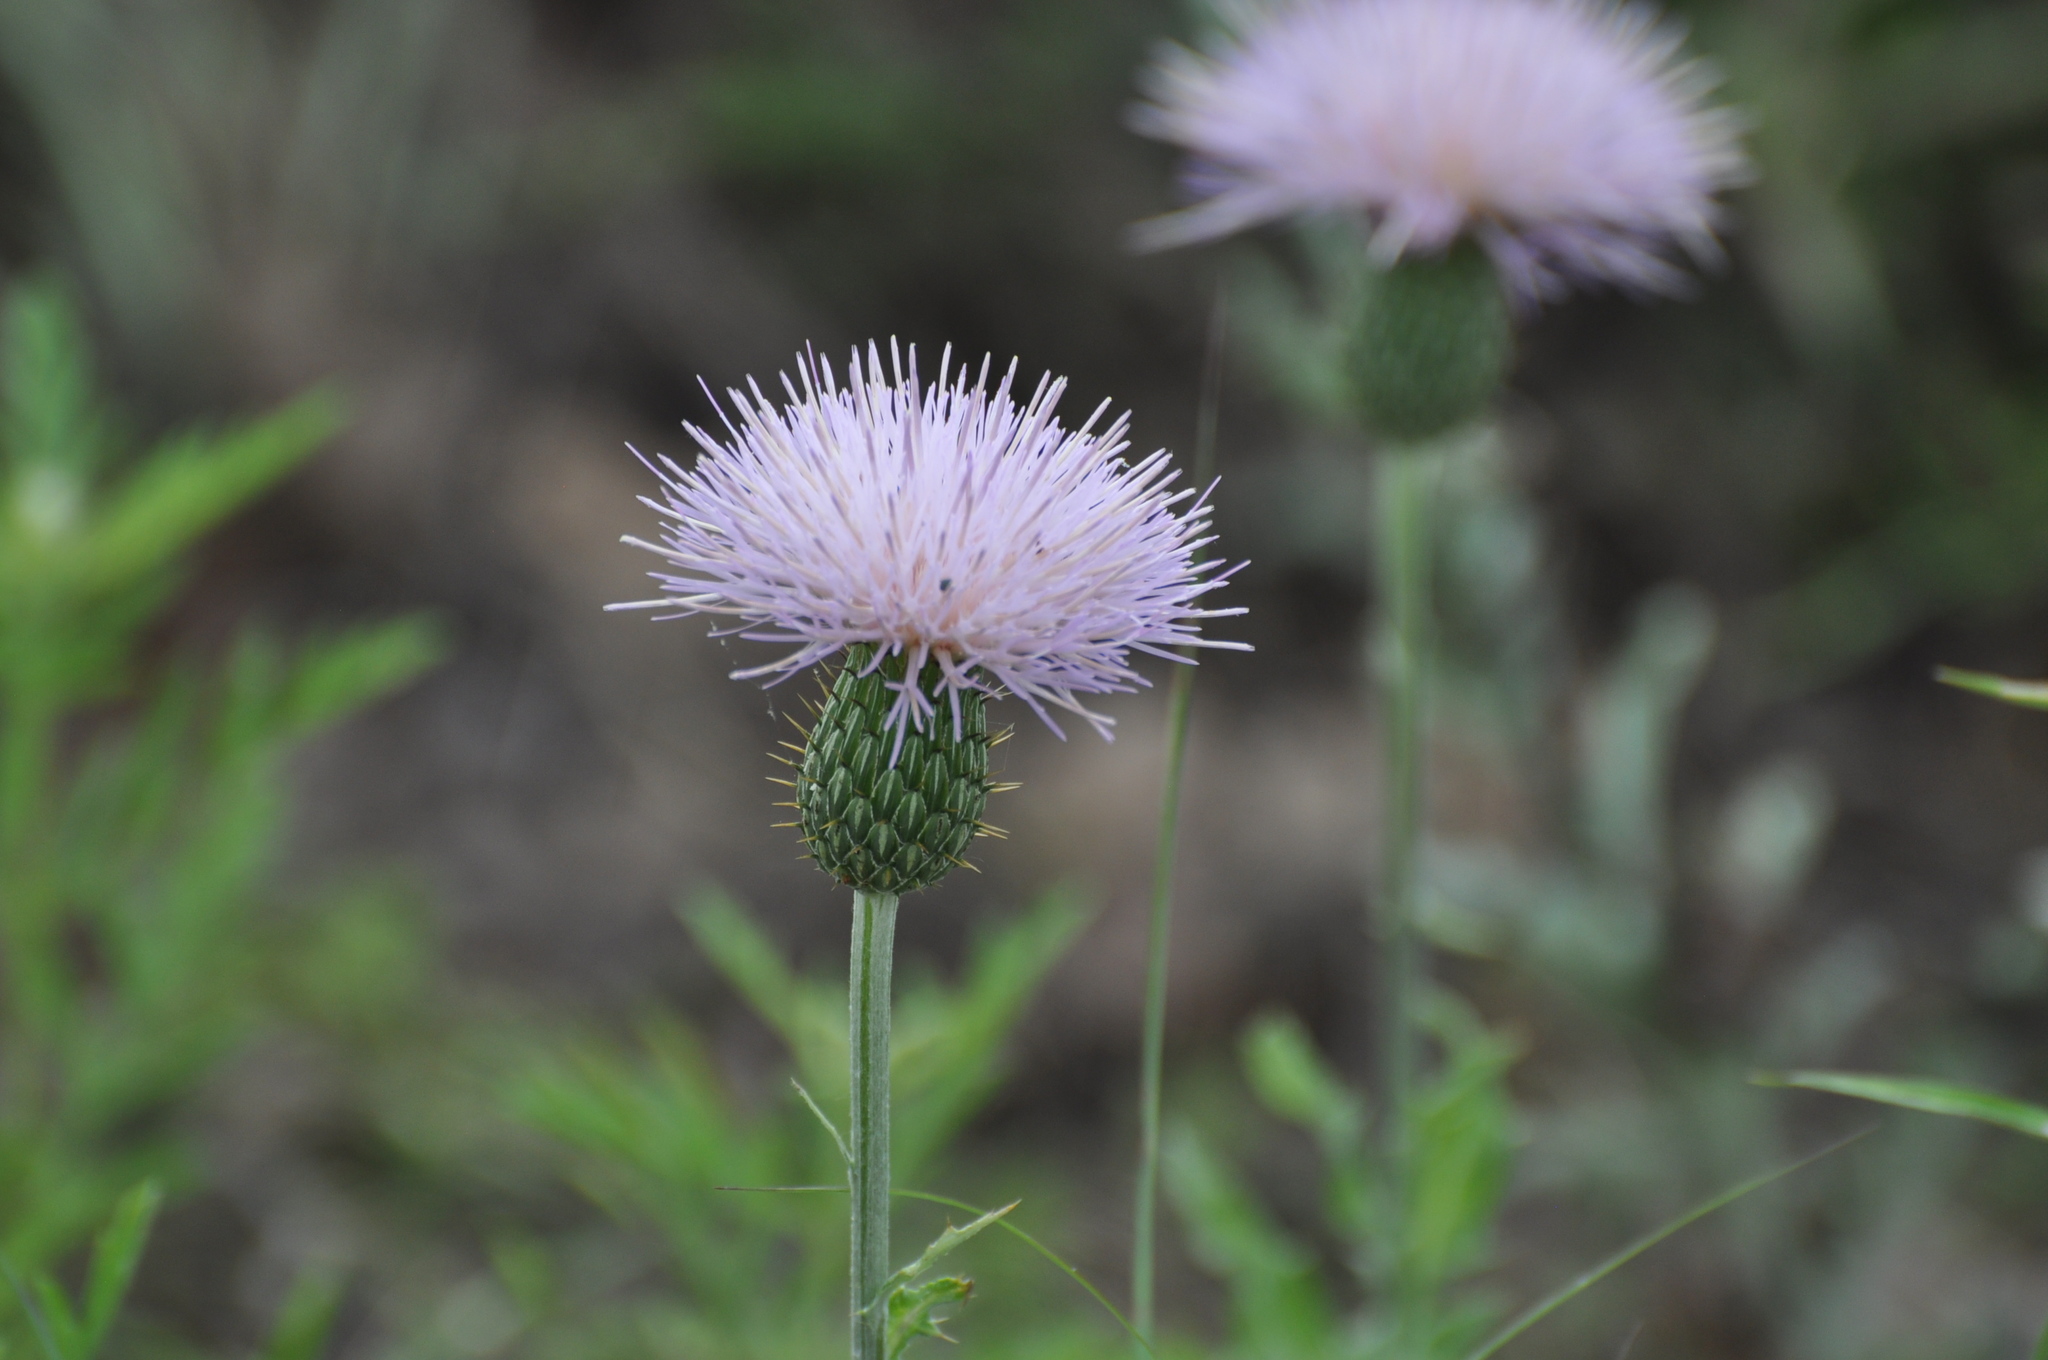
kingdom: Plantae
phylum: Tracheophyta
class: Magnoliopsida
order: Asterales
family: Asteraceae
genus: Cirsium
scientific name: Cirsium undulatum
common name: Pasture thistle
